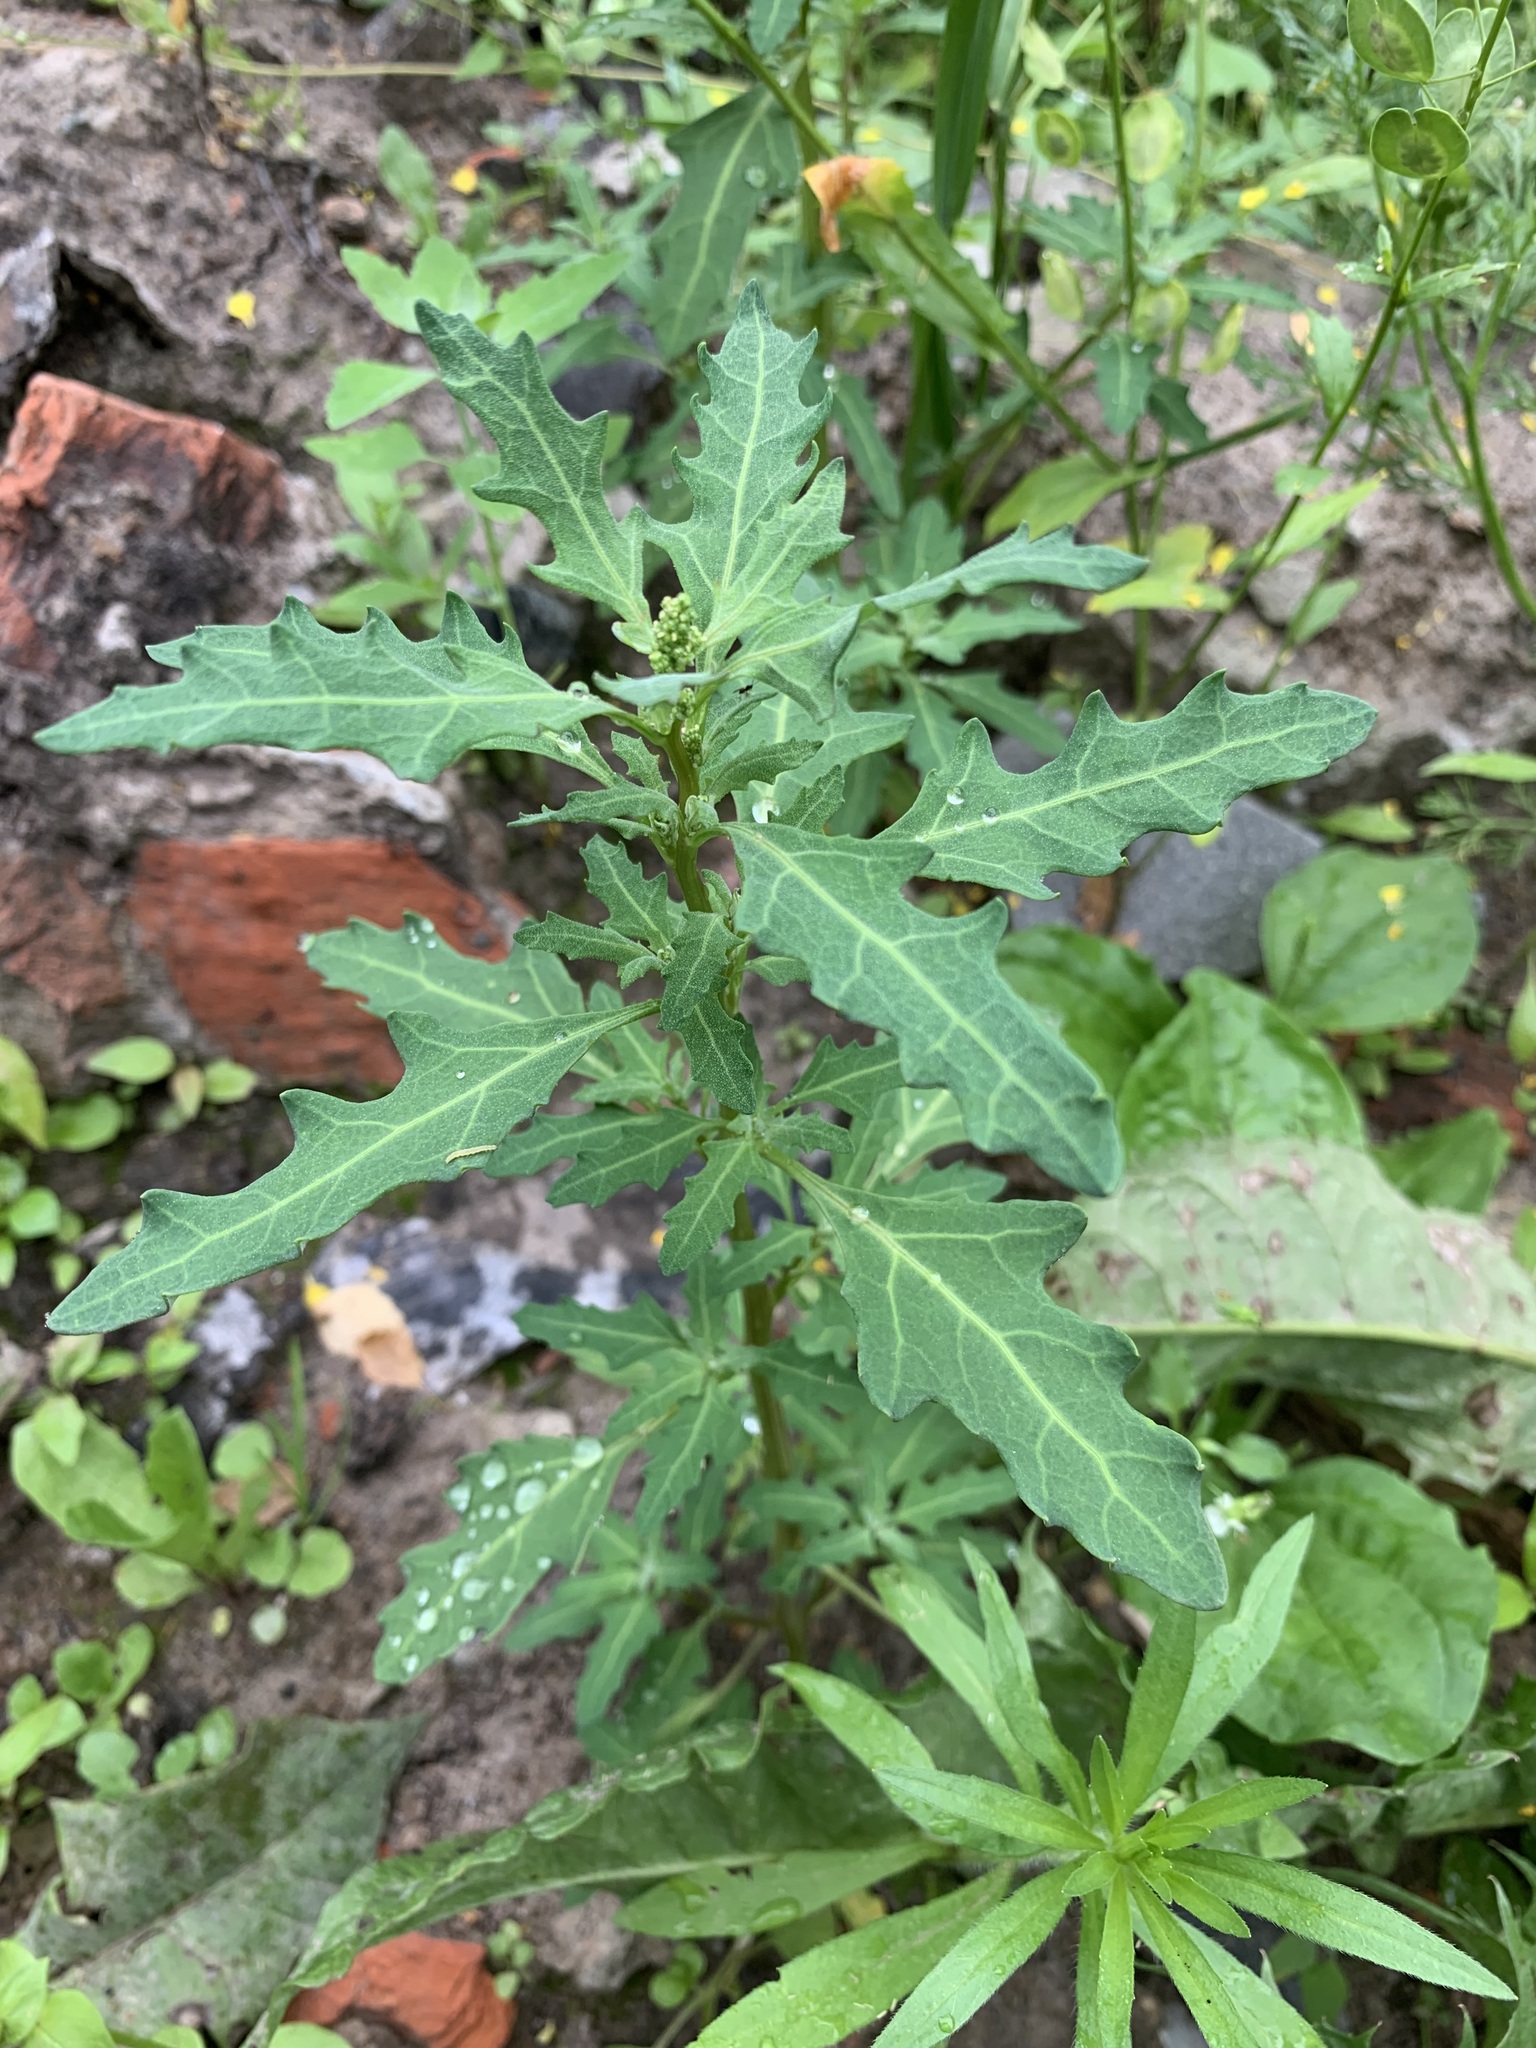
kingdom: Plantae
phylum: Tracheophyta
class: Magnoliopsida
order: Caryophyllales
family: Amaranthaceae
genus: Oxybasis
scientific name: Oxybasis glauca
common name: Glaucous goosefoot
